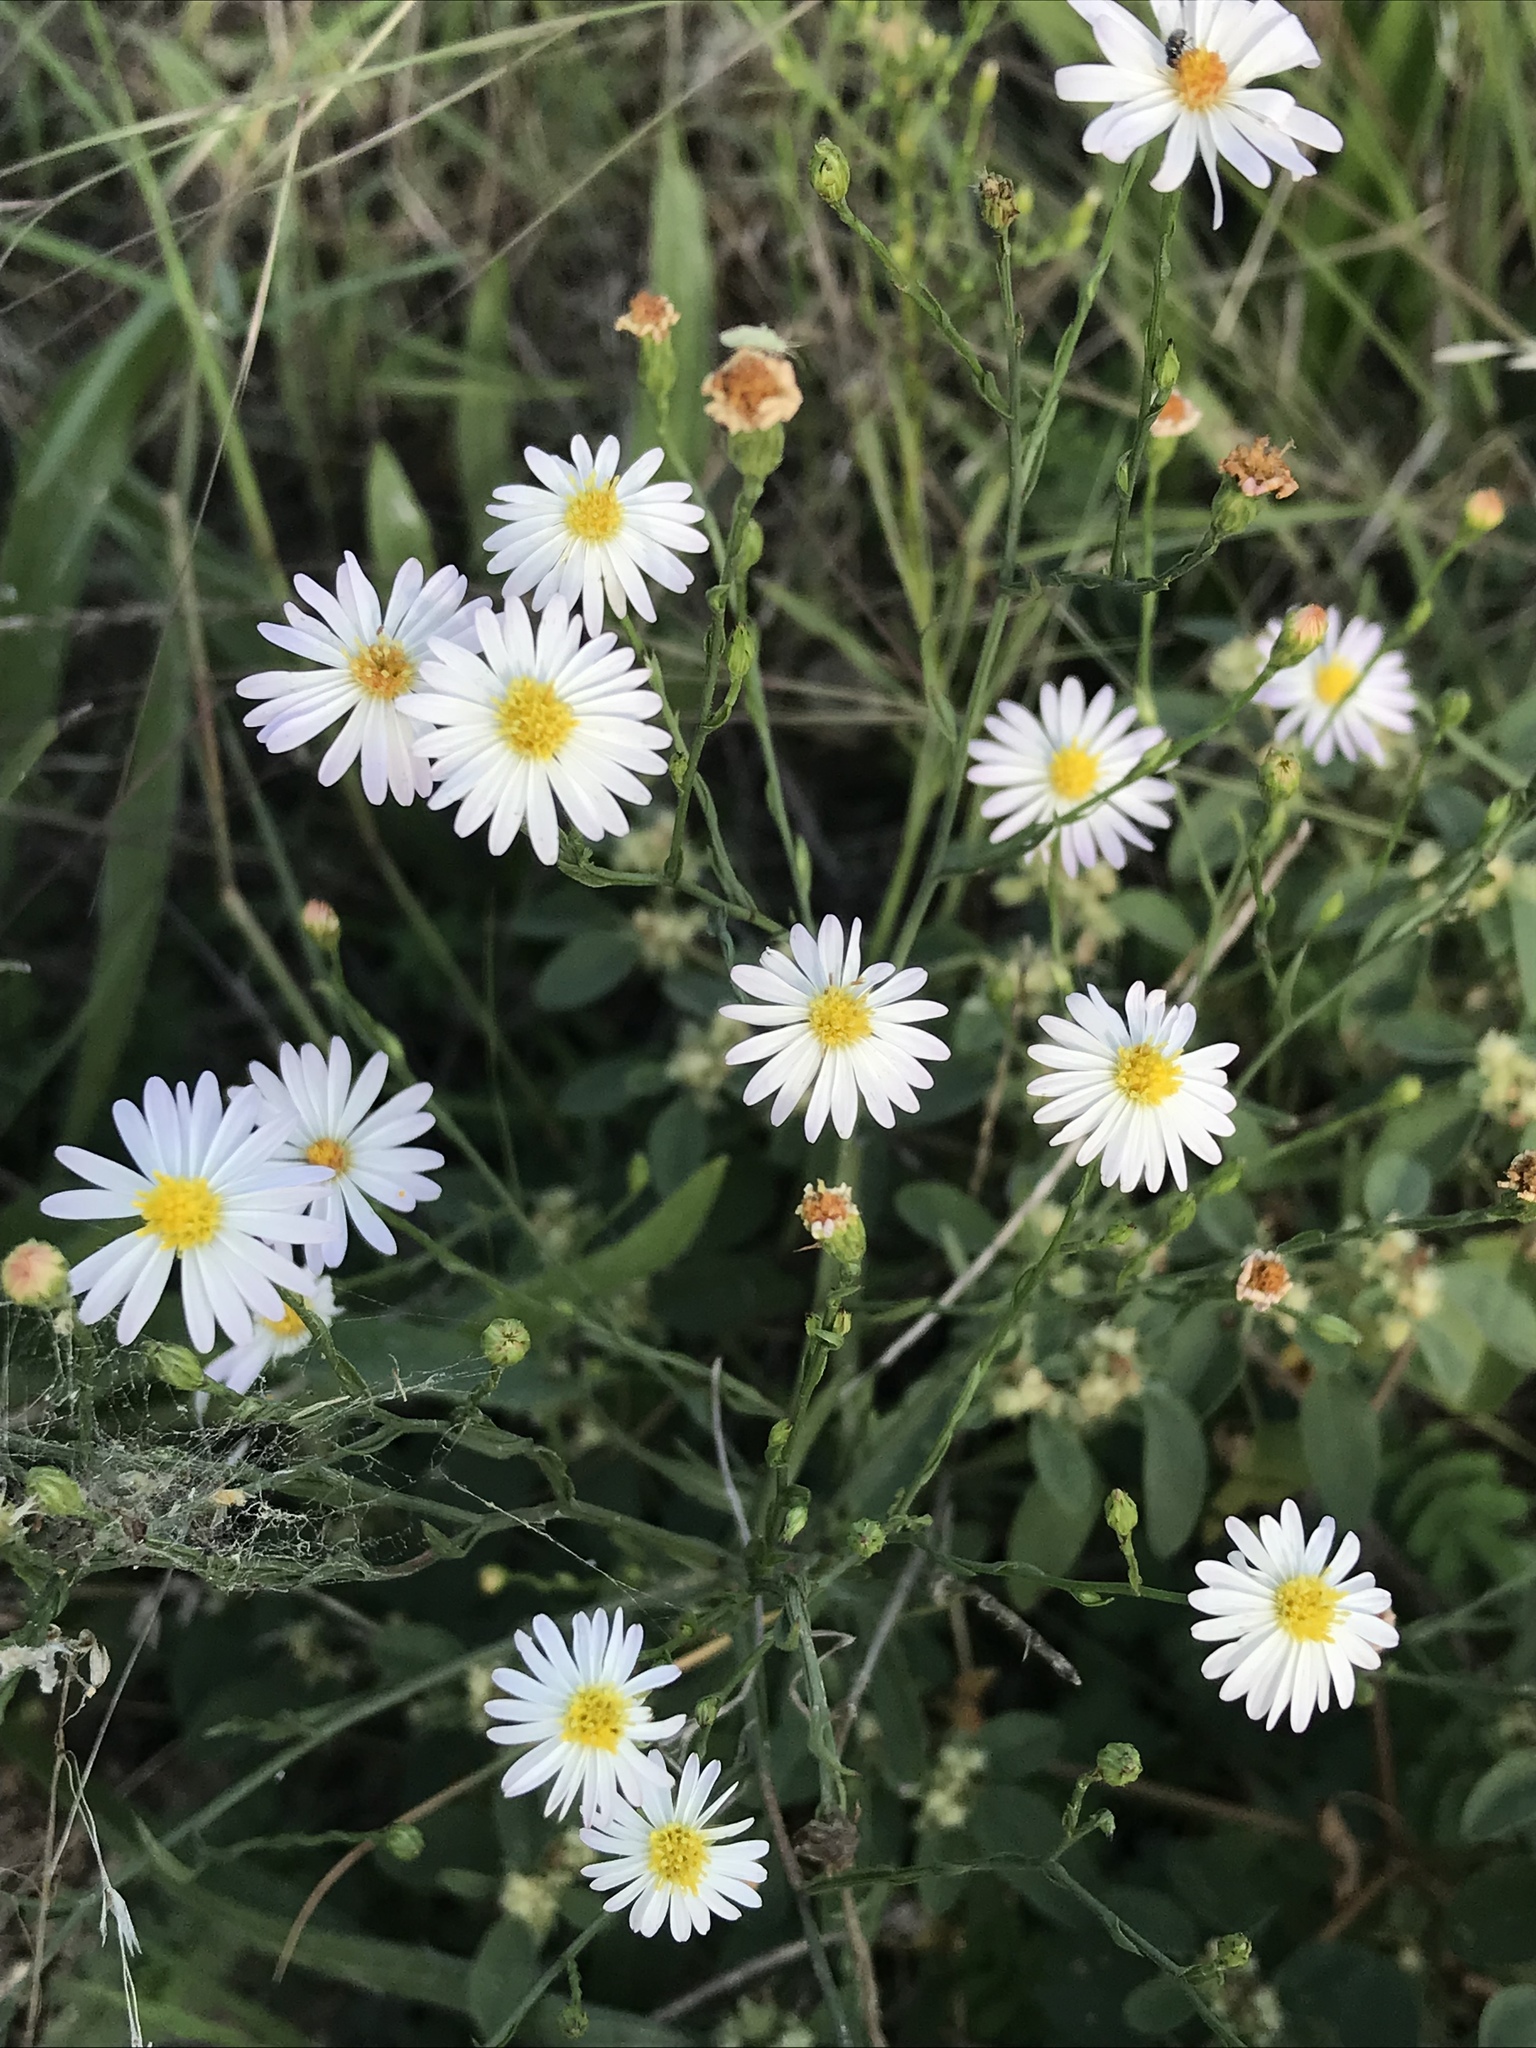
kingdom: Plantae
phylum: Tracheophyta
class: Magnoliopsida
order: Asterales
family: Asteraceae
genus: Symphyotrichum
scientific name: Symphyotrichum ericoides
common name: Heath aster
